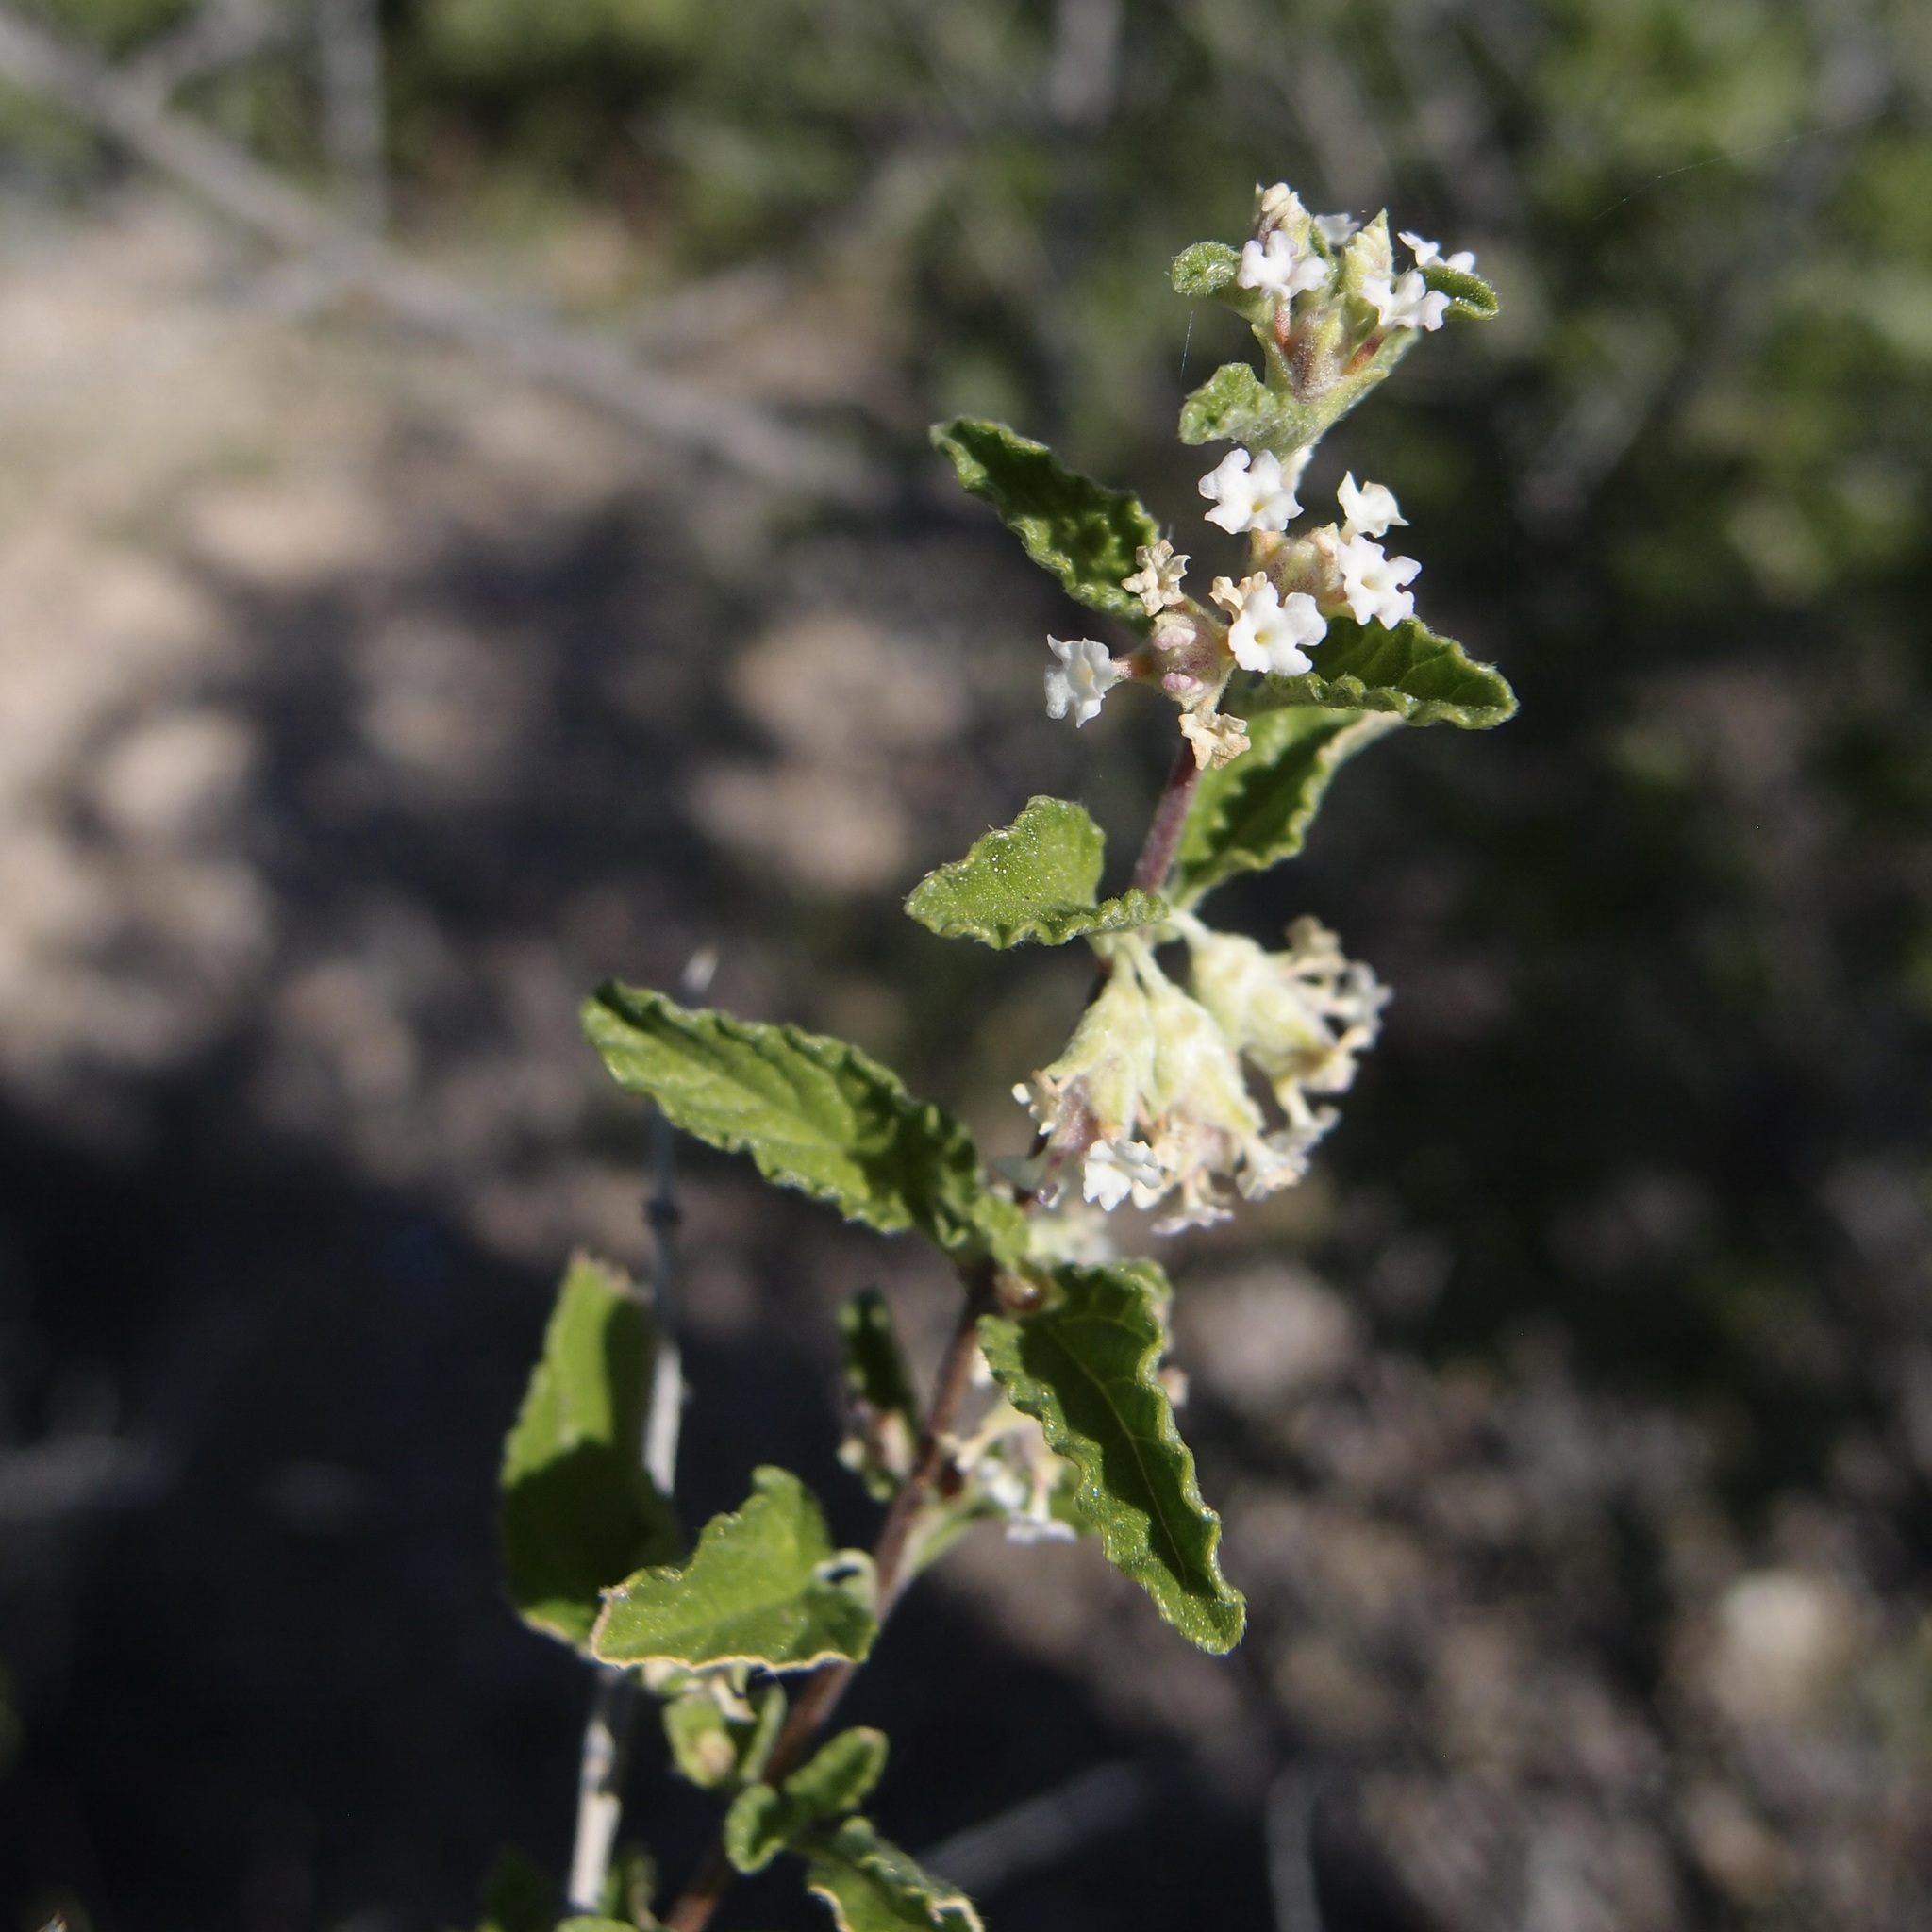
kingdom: Plantae
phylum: Tracheophyta
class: Magnoliopsida
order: Lamiales
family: Verbenaceae
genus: Lippia
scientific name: Lippia origanoides
